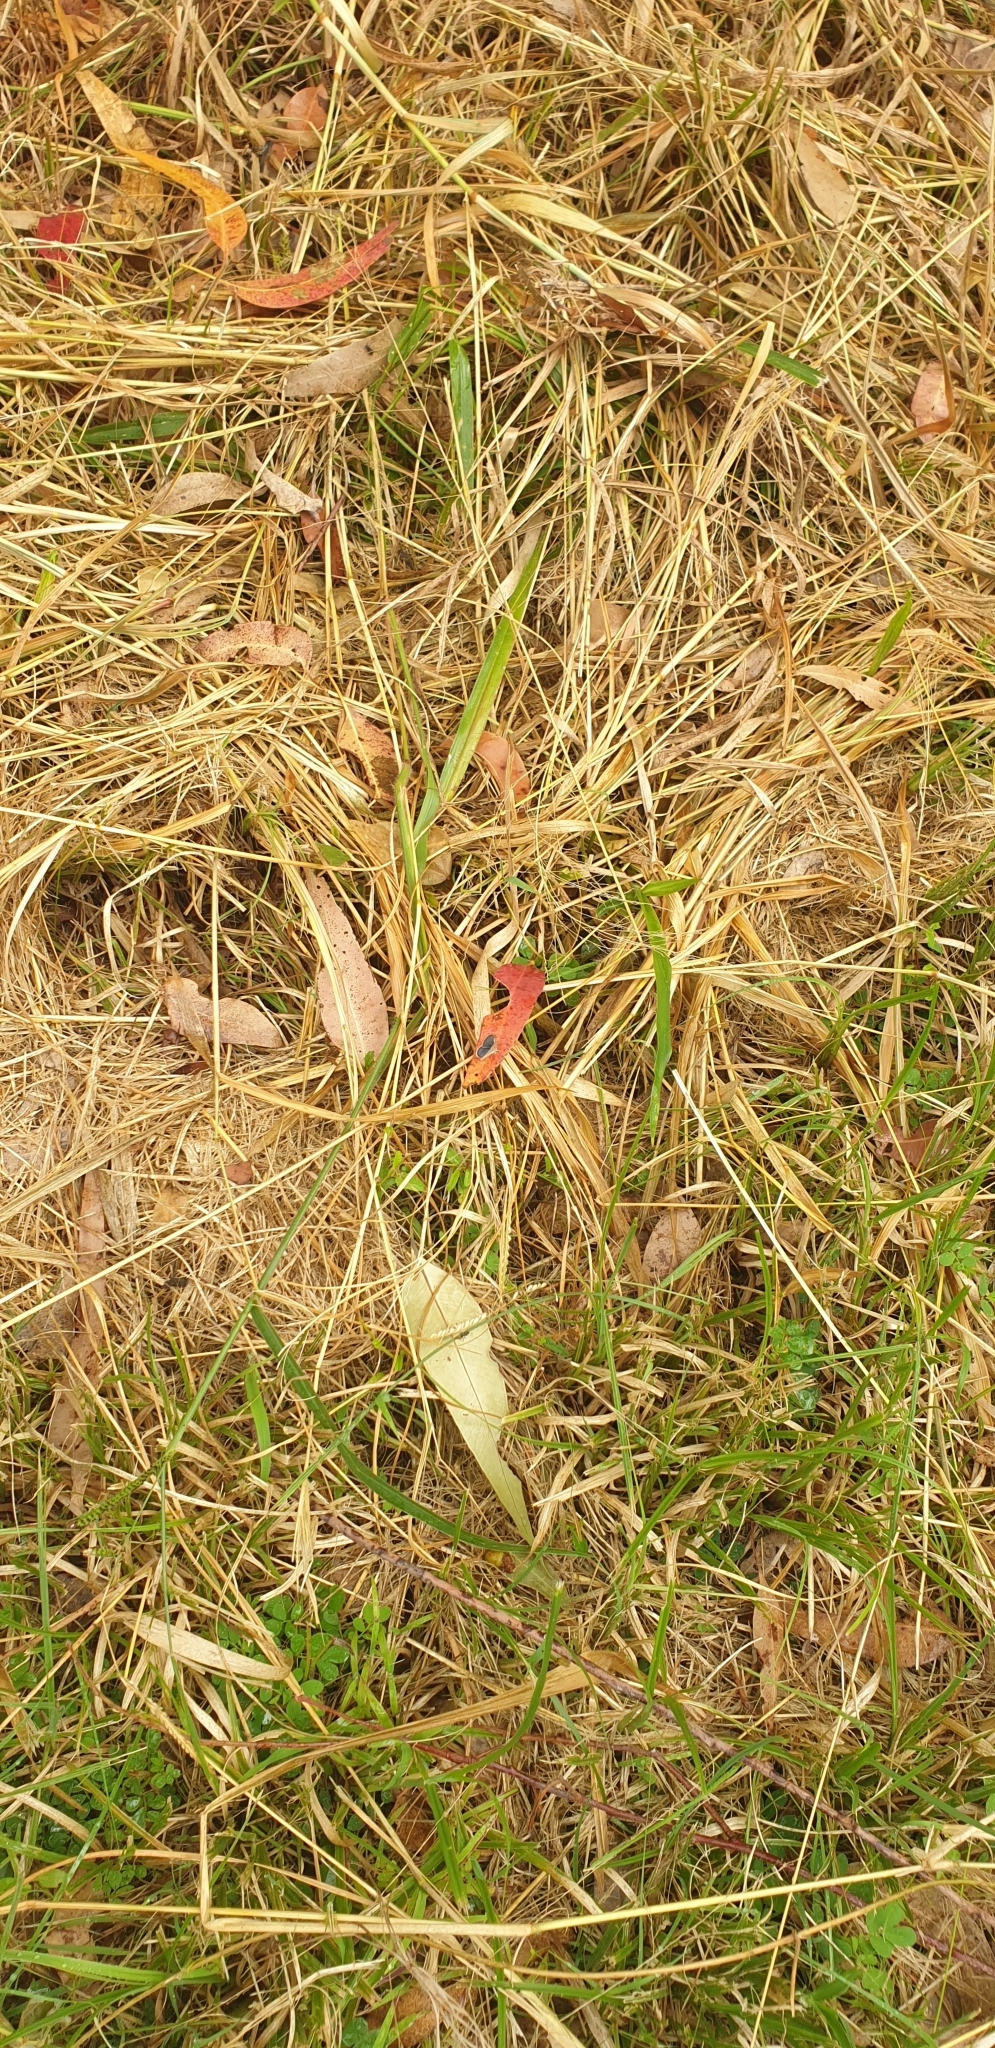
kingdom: Animalia
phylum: Arthropoda
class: Insecta
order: Lepidoptera
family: Lycaenidae
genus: Zizina
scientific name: Zizina labradus
